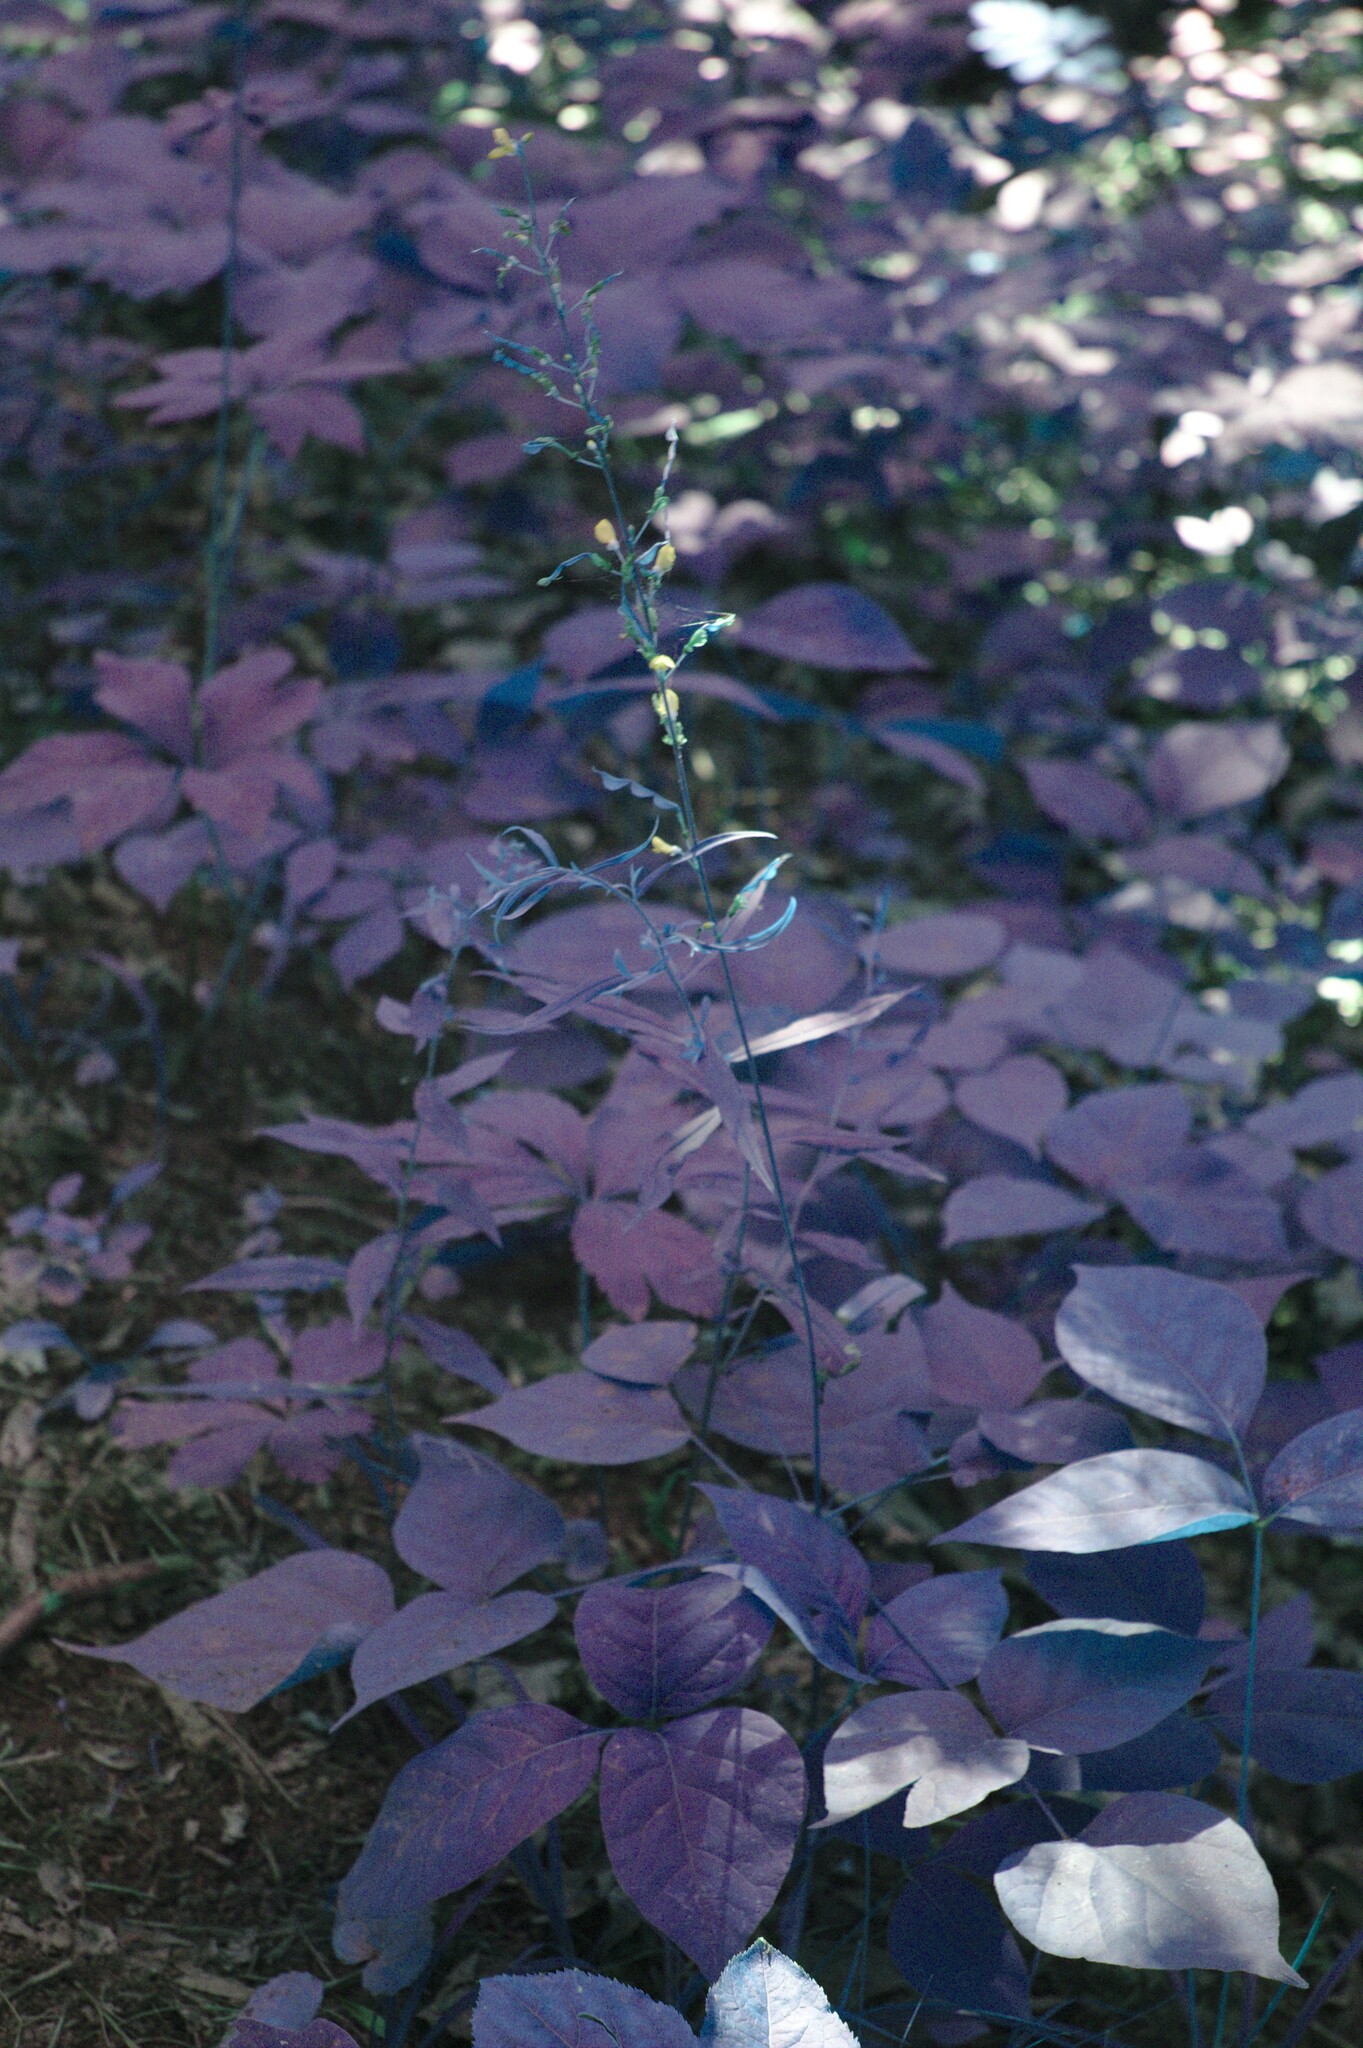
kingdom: Plantae
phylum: Tracheophyta
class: Magnoliopsida
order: Fabales
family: Fabaceae
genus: Hylodesmum
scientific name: Hylodesmum glutinosum
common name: Clustered-leaved tick-trefoil
